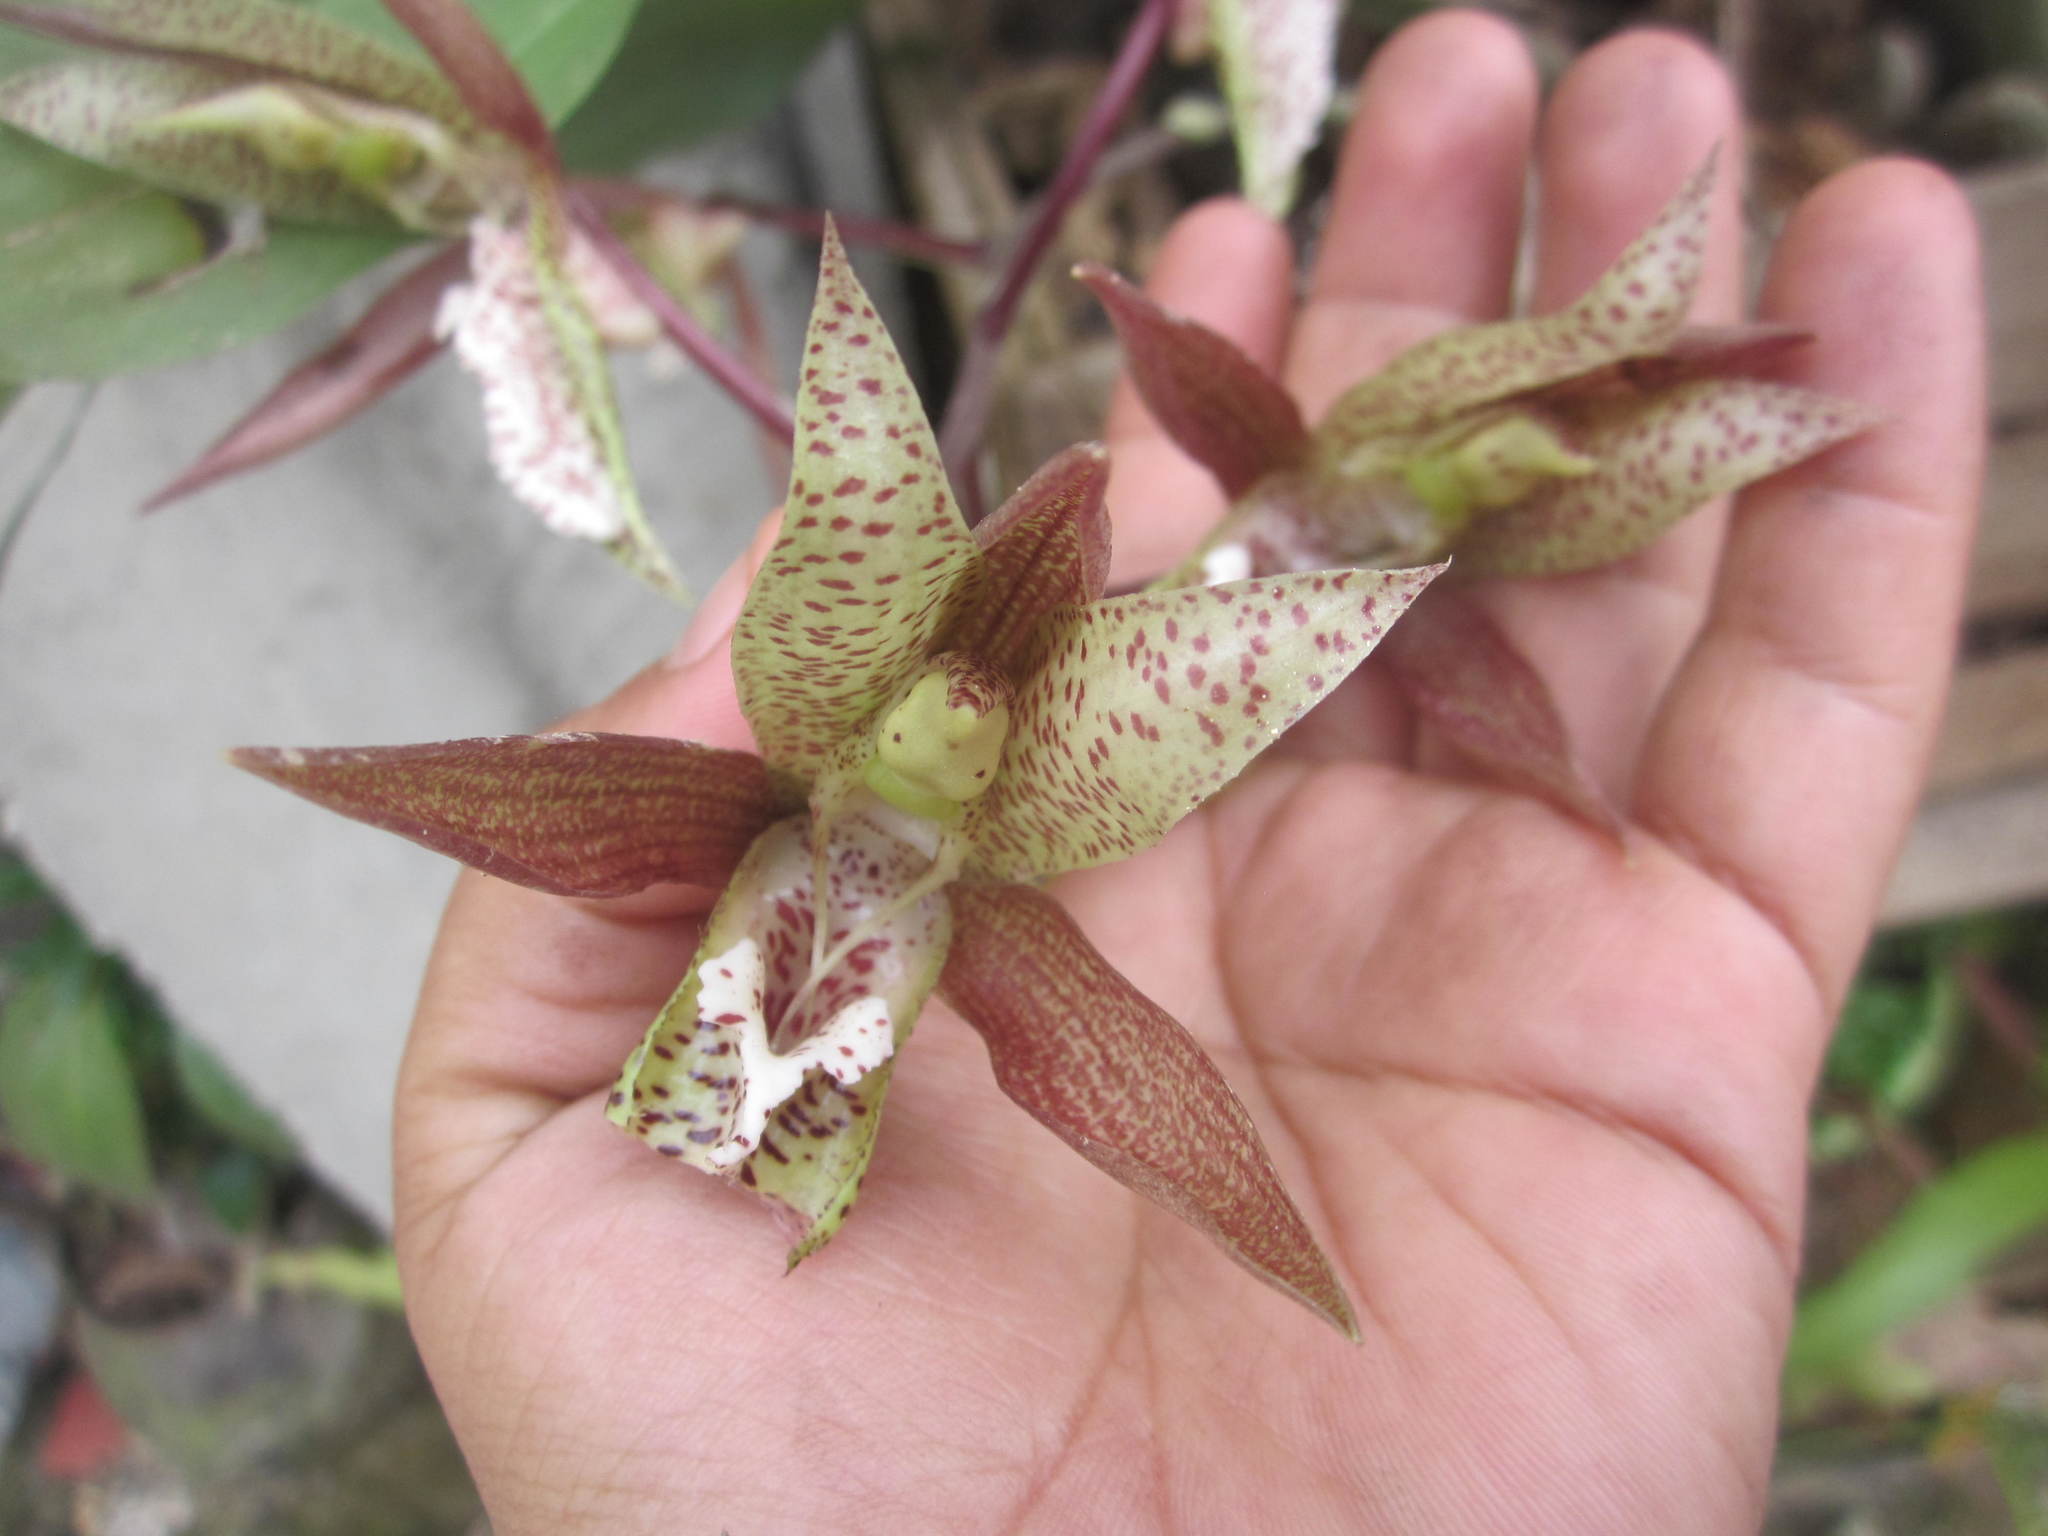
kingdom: Plantae
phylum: Tracheophyta
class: Liliopsida
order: Asparagales
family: Orchidaceae
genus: Catasetum
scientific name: Catasetum laminatum
